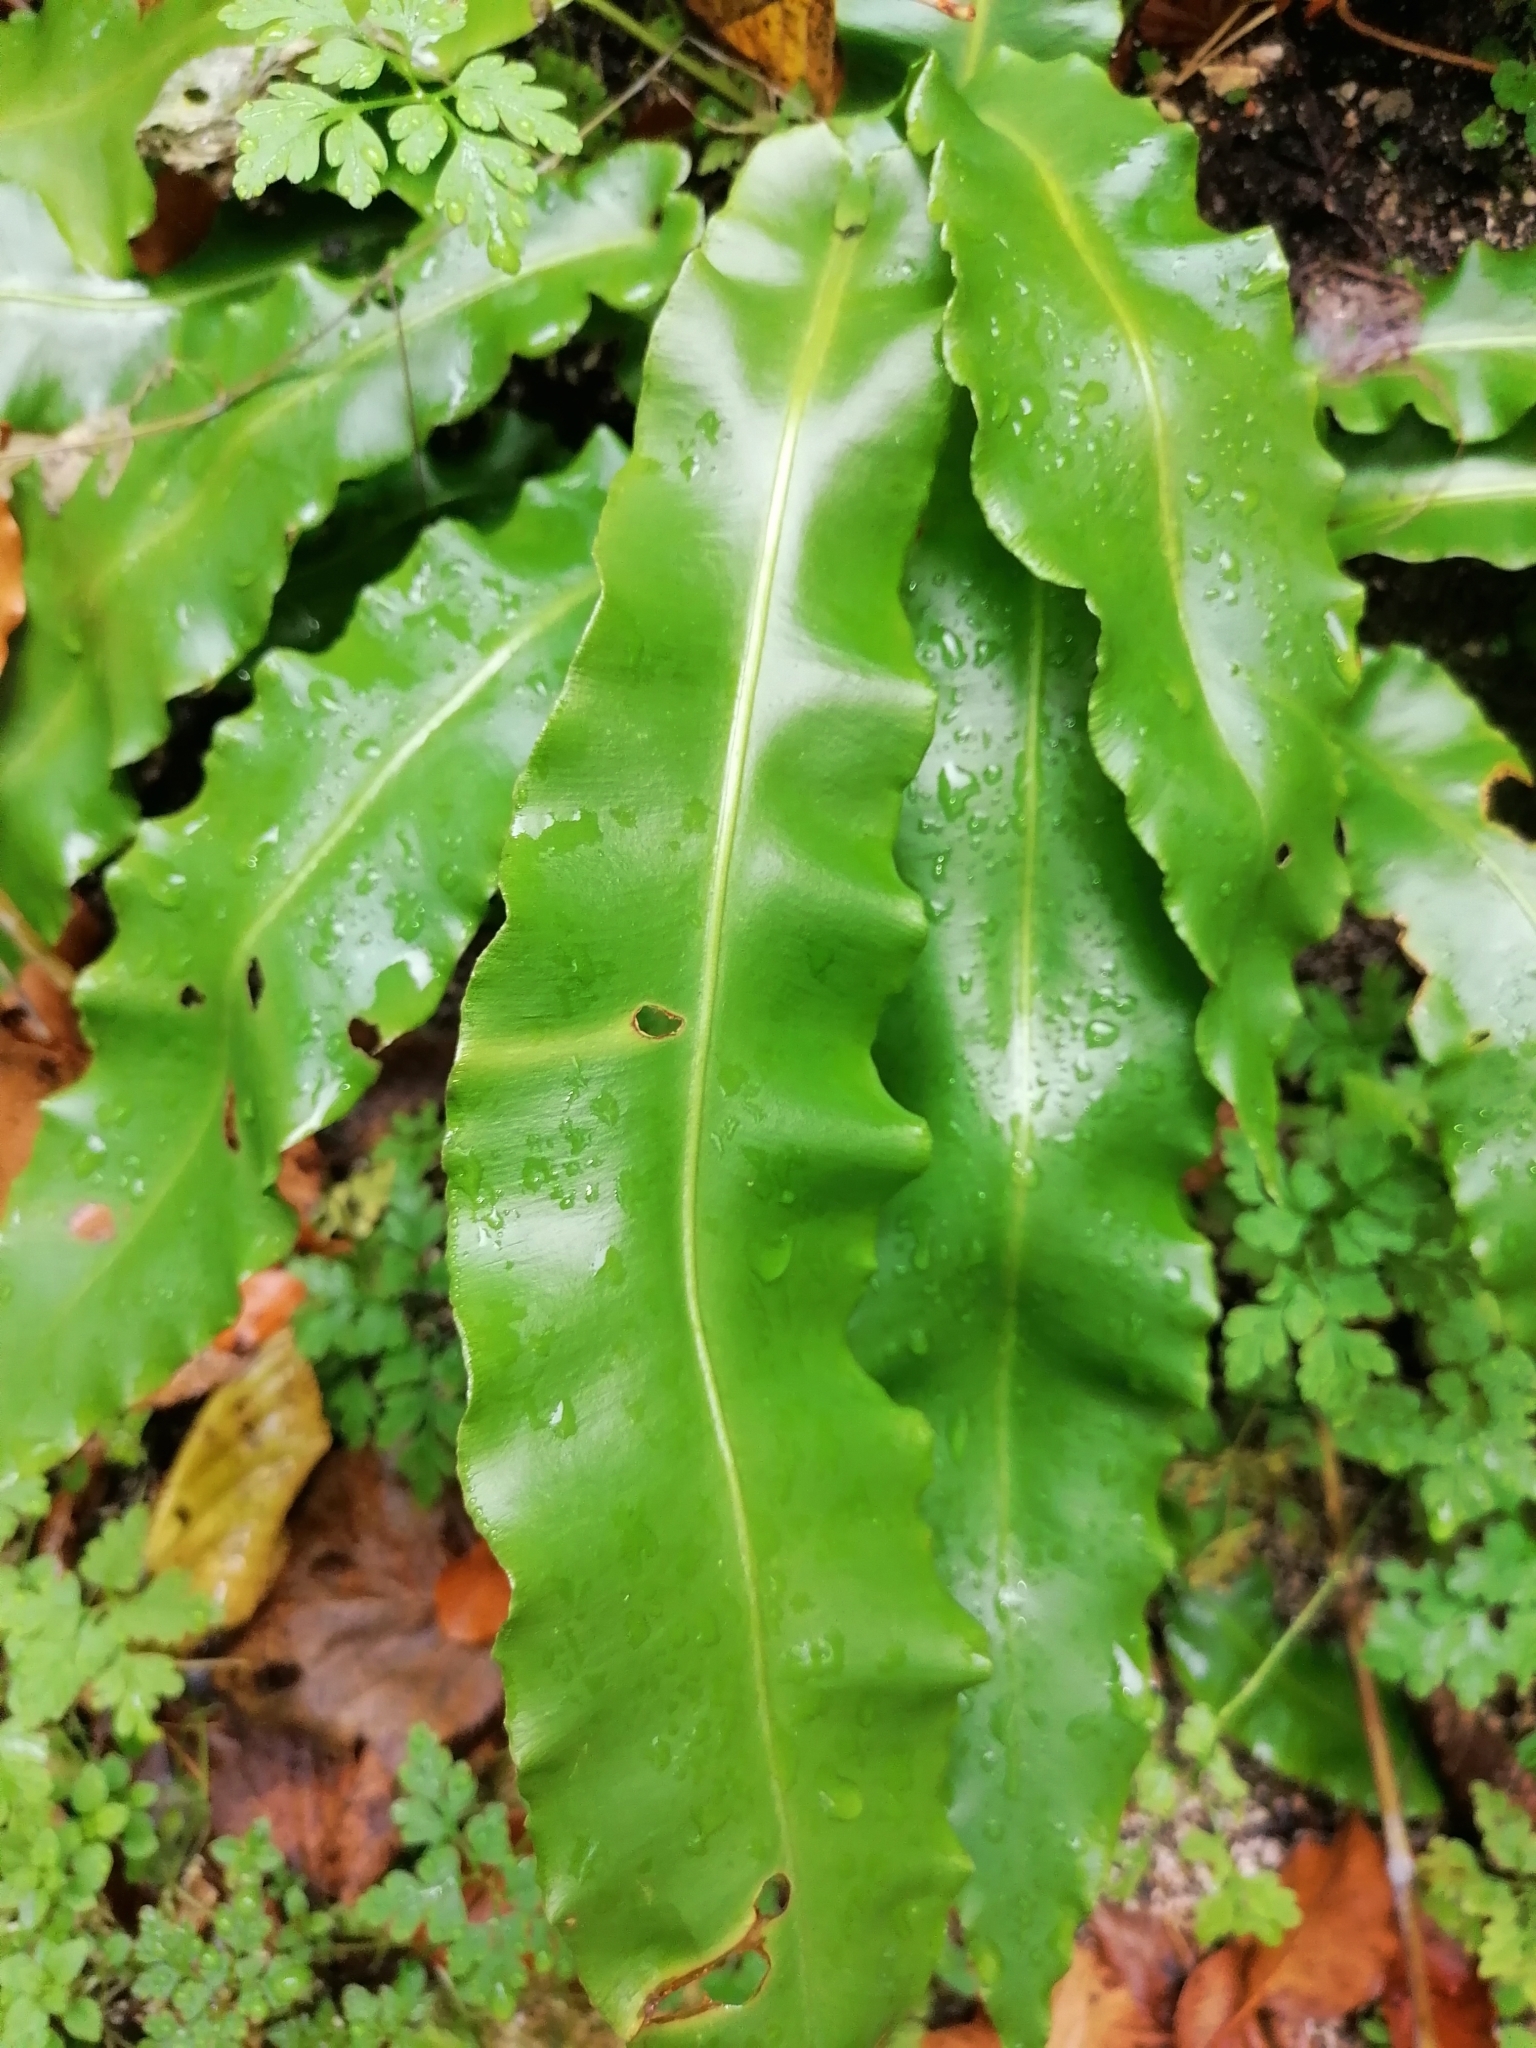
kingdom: Plantae
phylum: Tracheophyta
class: Polypodiopsida
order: Polypodiales
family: Aspleniaceae
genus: Asplenium
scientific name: Asplenium scolopendrium
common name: Hart's-tongue fern
